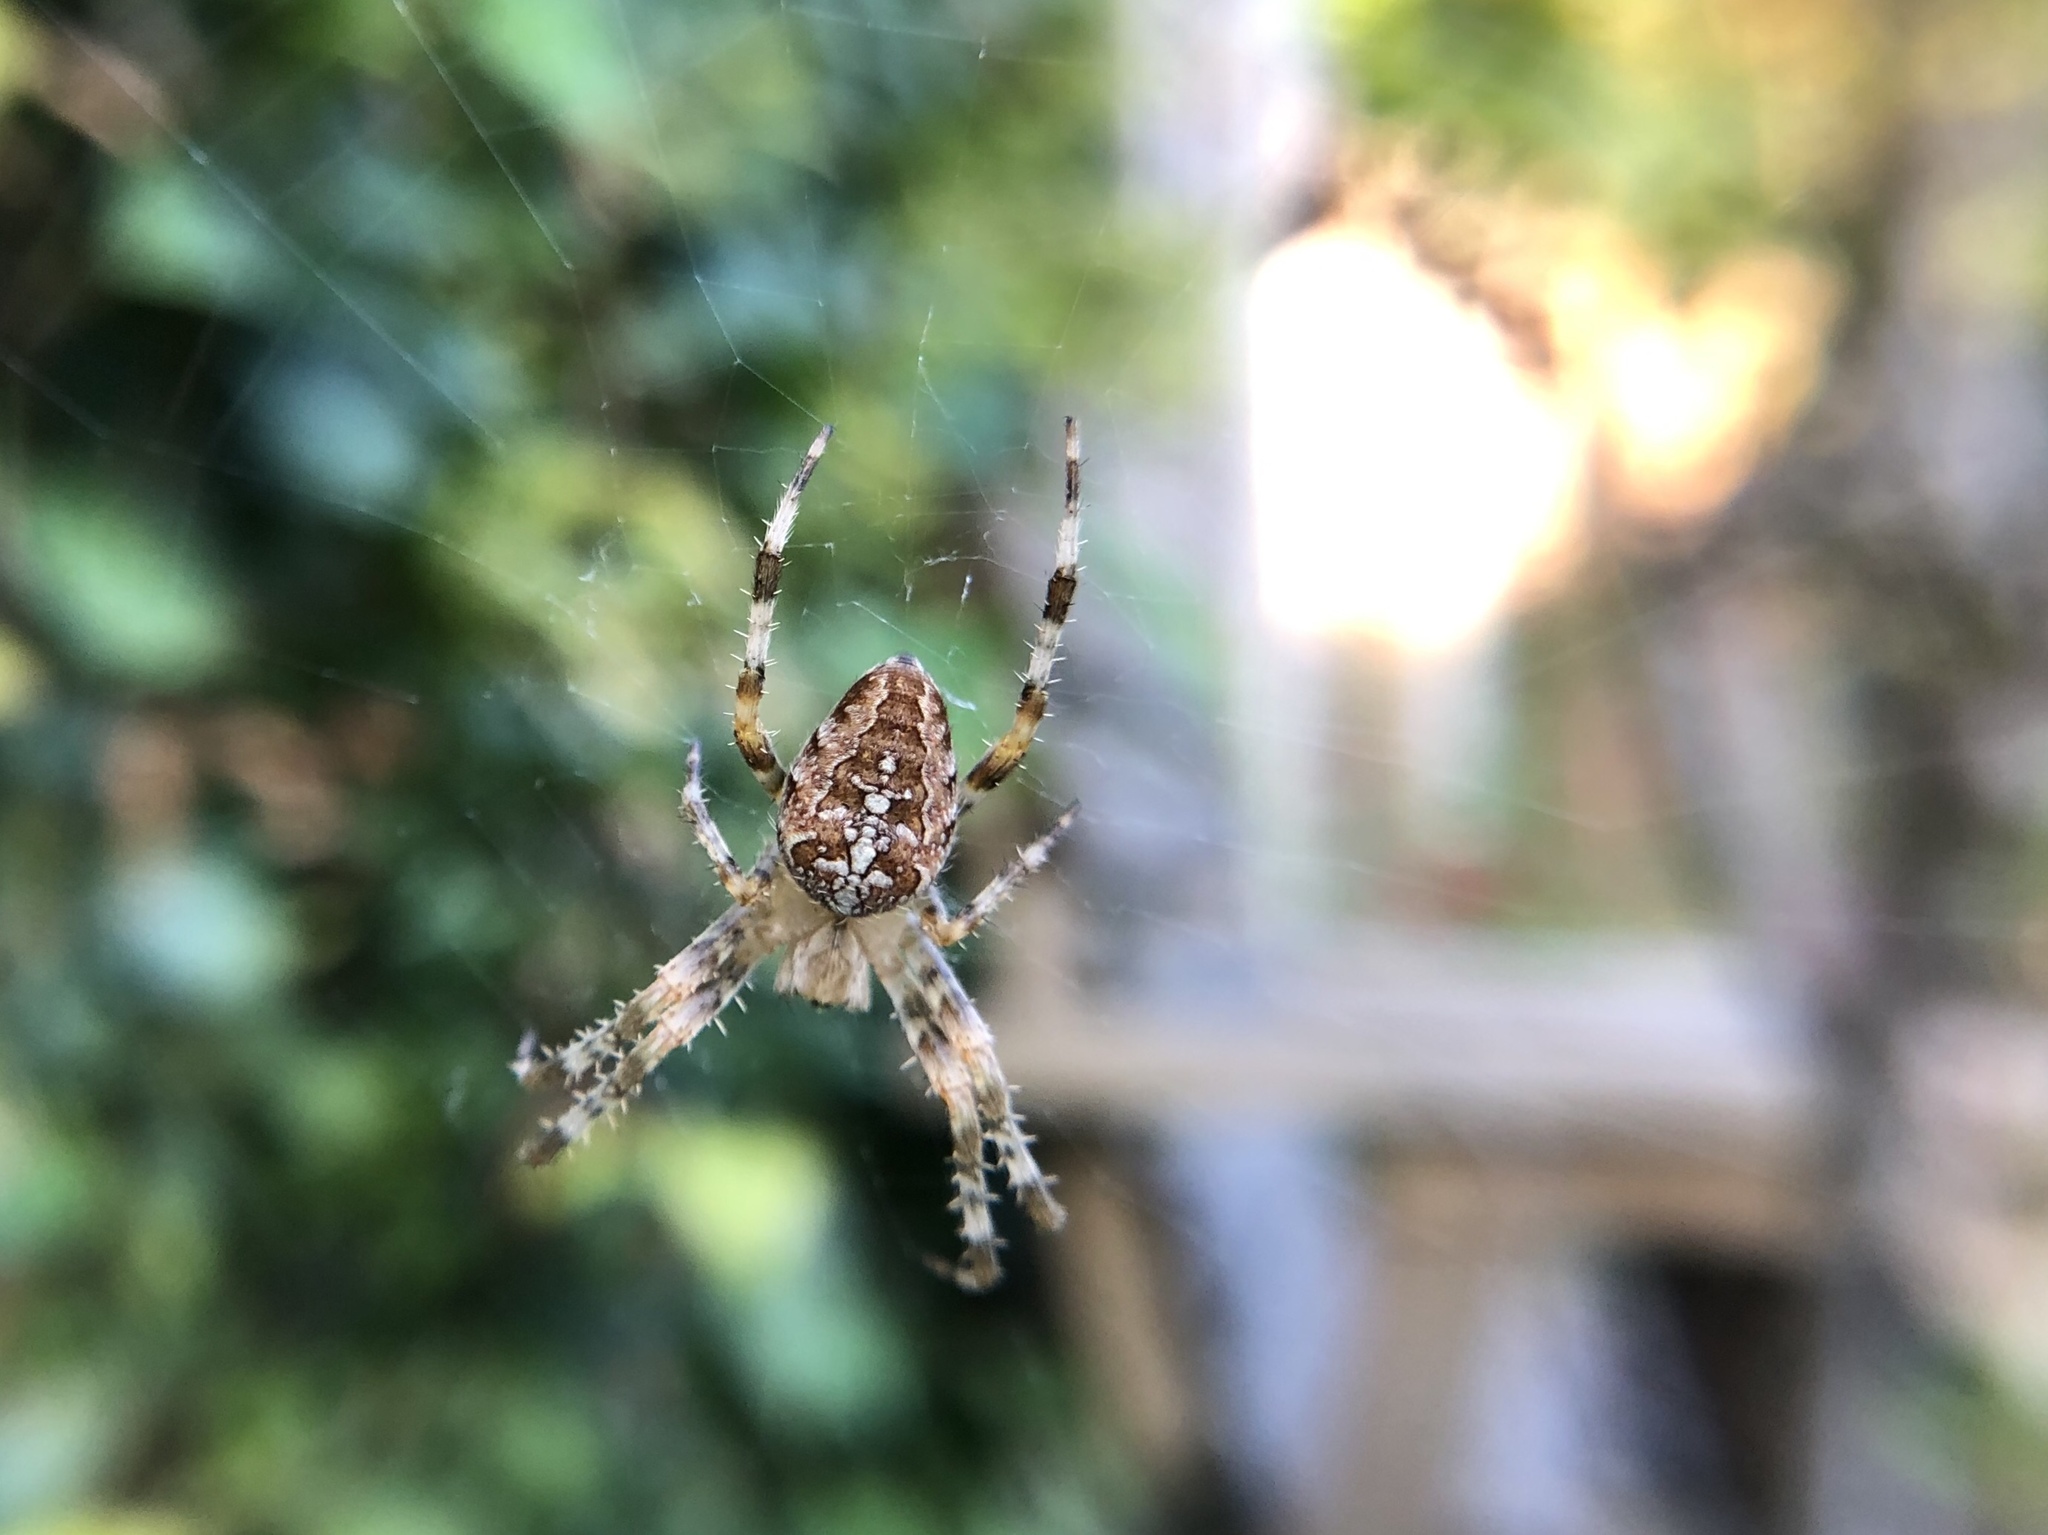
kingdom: Animalia
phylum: Arthropoda
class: Arachnida
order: Araneae
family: Araneidae
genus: Araneus
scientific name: Araneus diadematus
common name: Cross orbweaver
